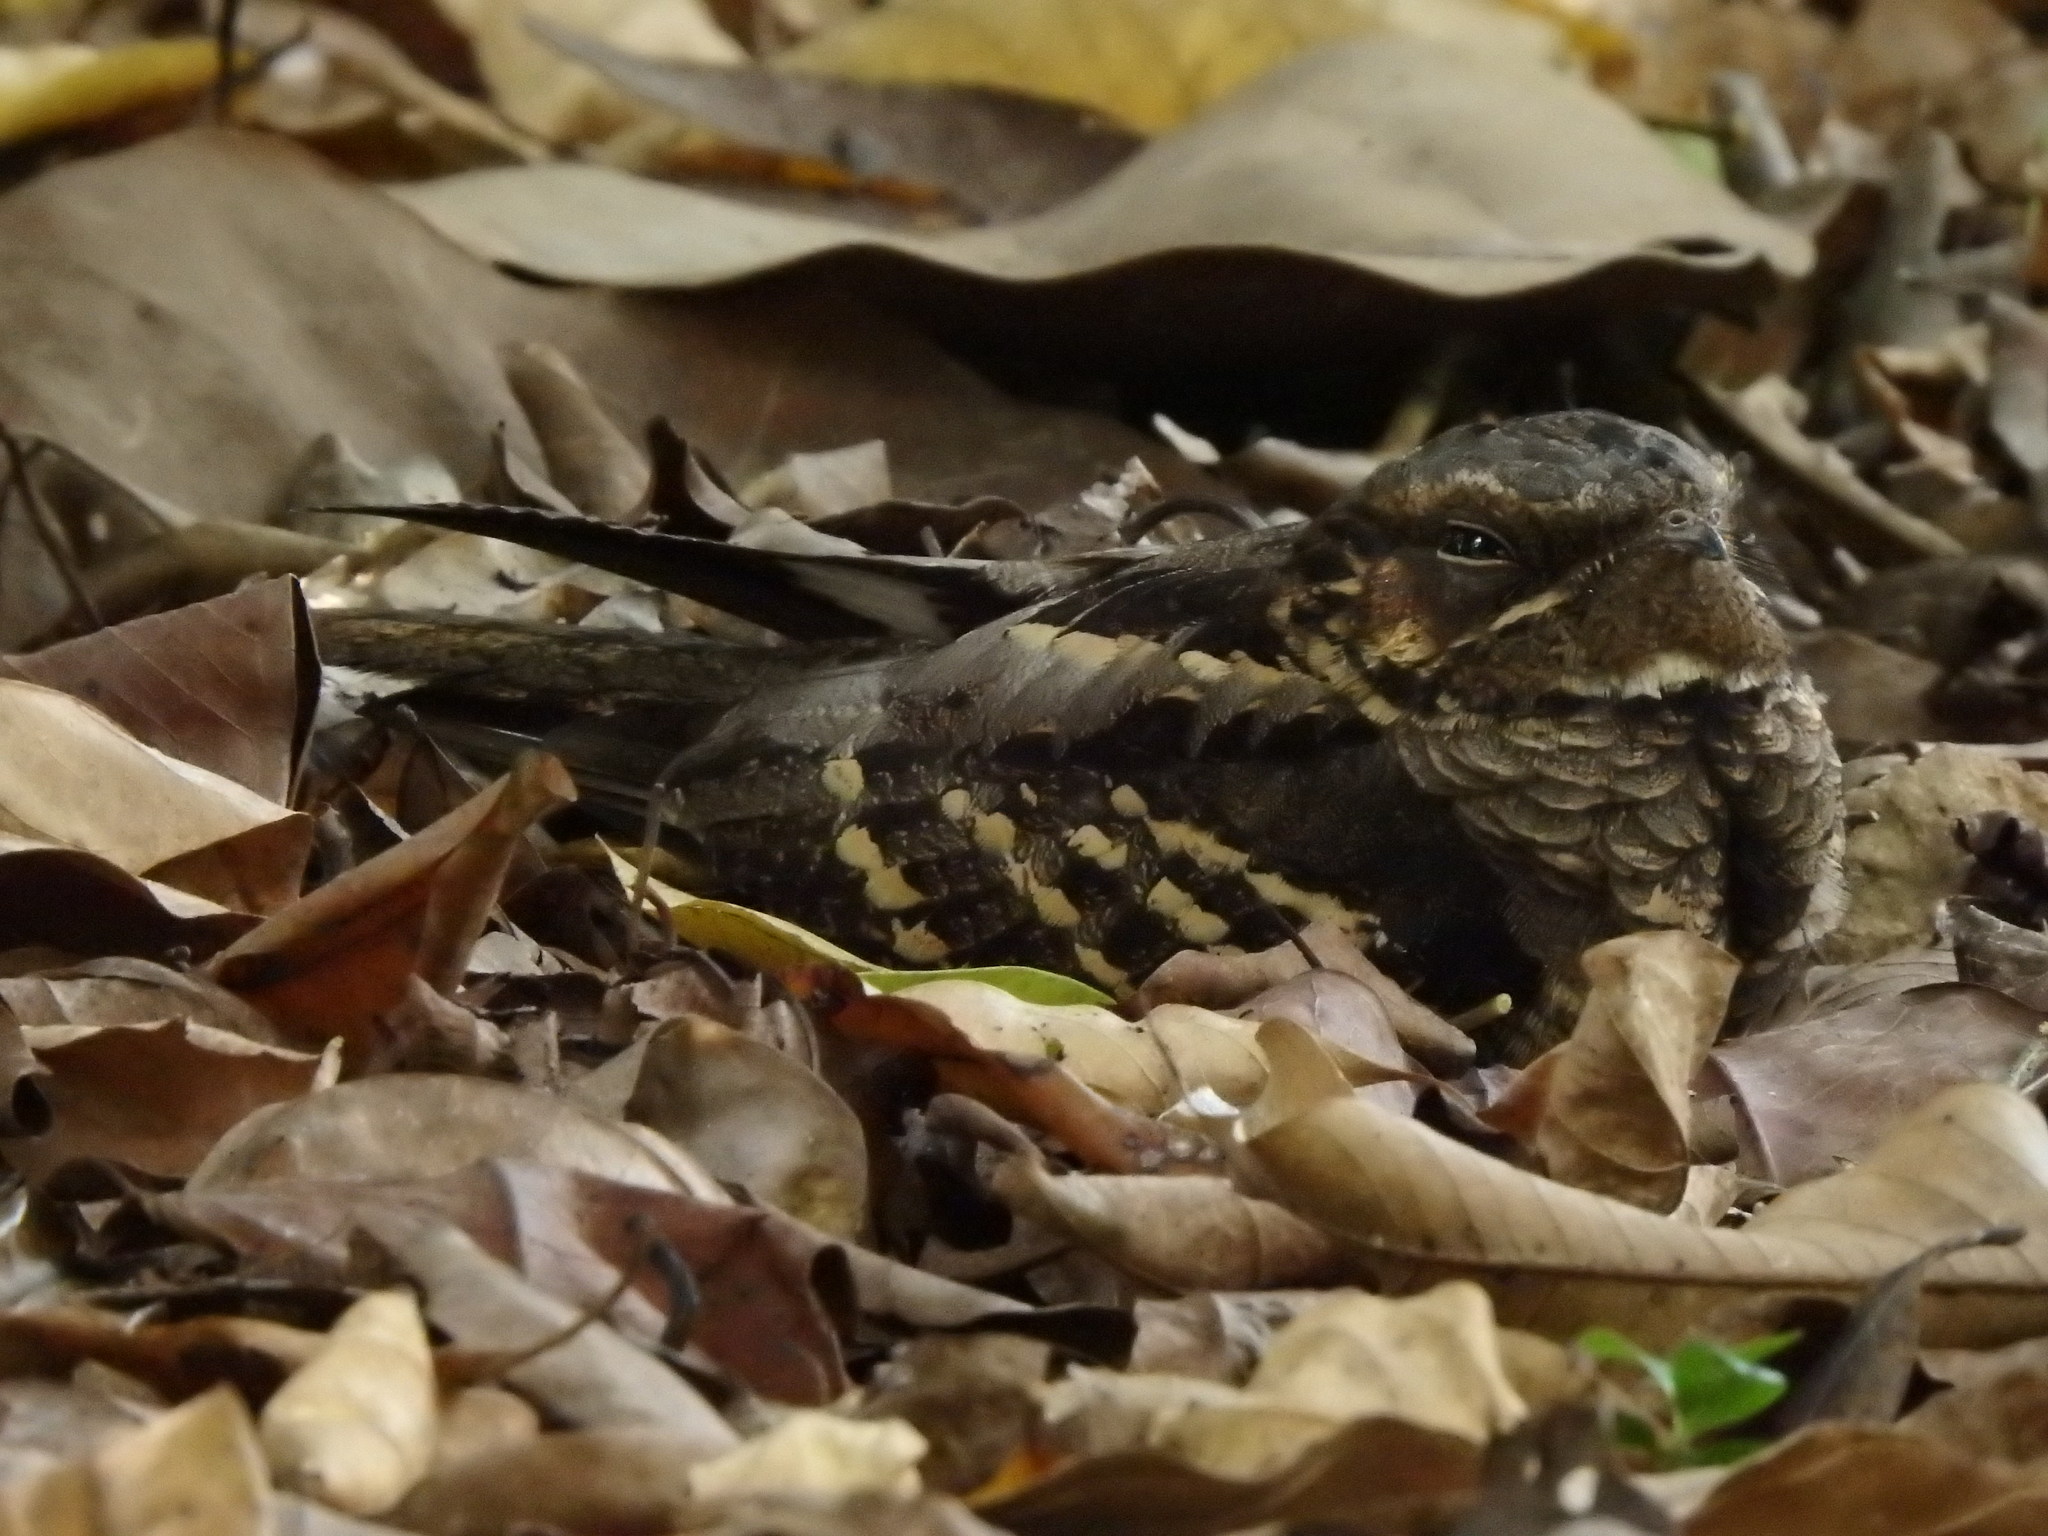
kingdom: Animalia
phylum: Chordata
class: Aves
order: Caprimulgiformes
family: Caprimulgidae
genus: Caprimulgus
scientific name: Caprimulgus macrurus
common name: Large-tailed nightjar
